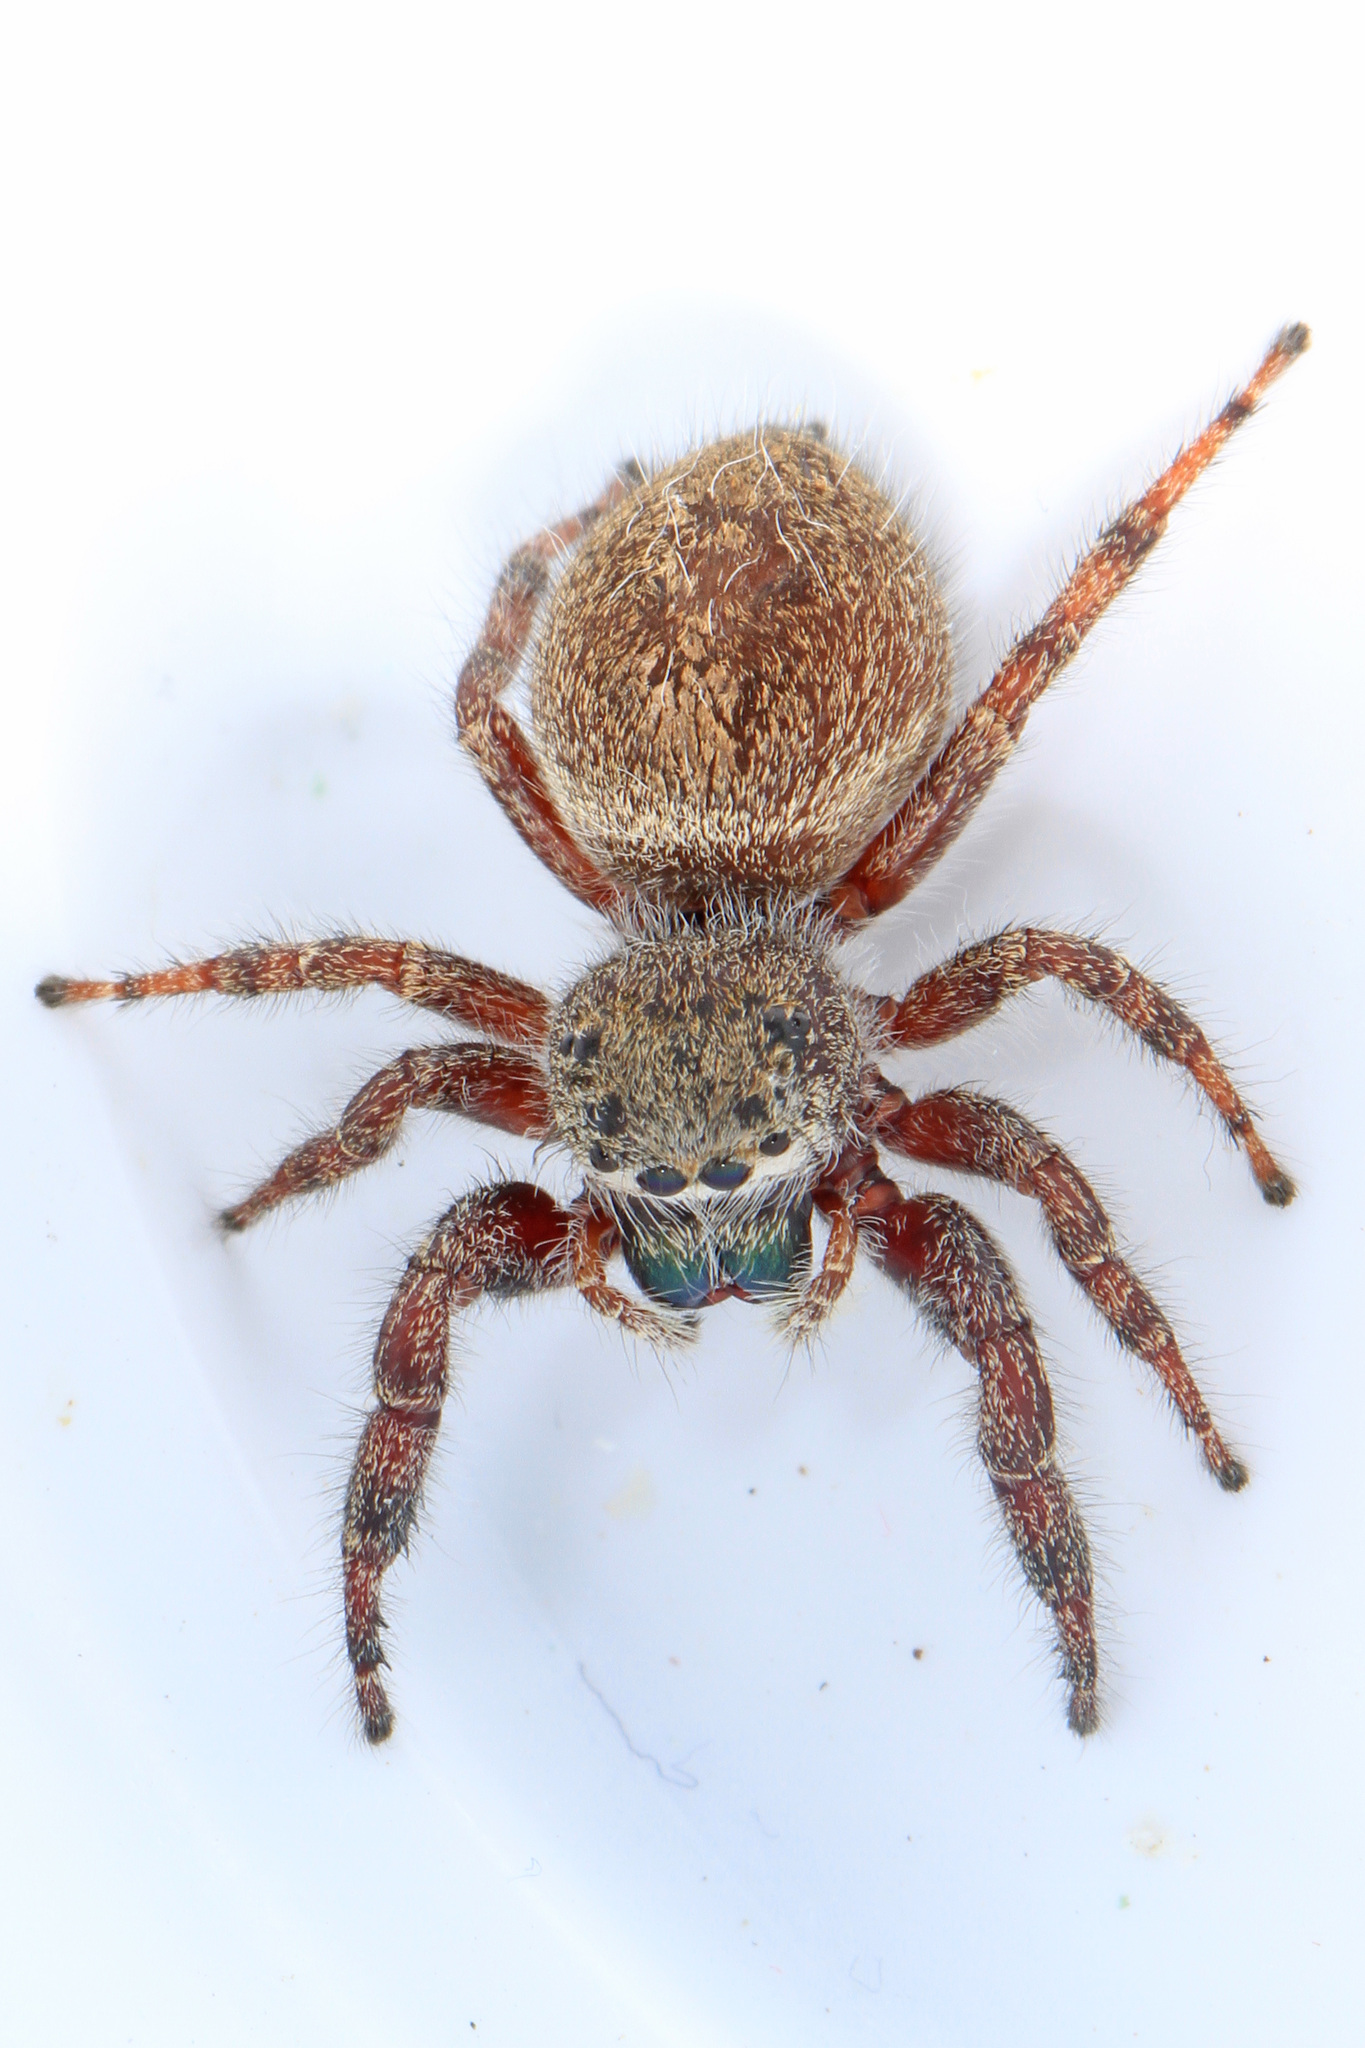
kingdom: Animalia
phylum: Arthropoda
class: Arachnida
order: Araneae
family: Salticidae
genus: Phidippus
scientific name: Phidippus princeps
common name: Grayish jumping spider
